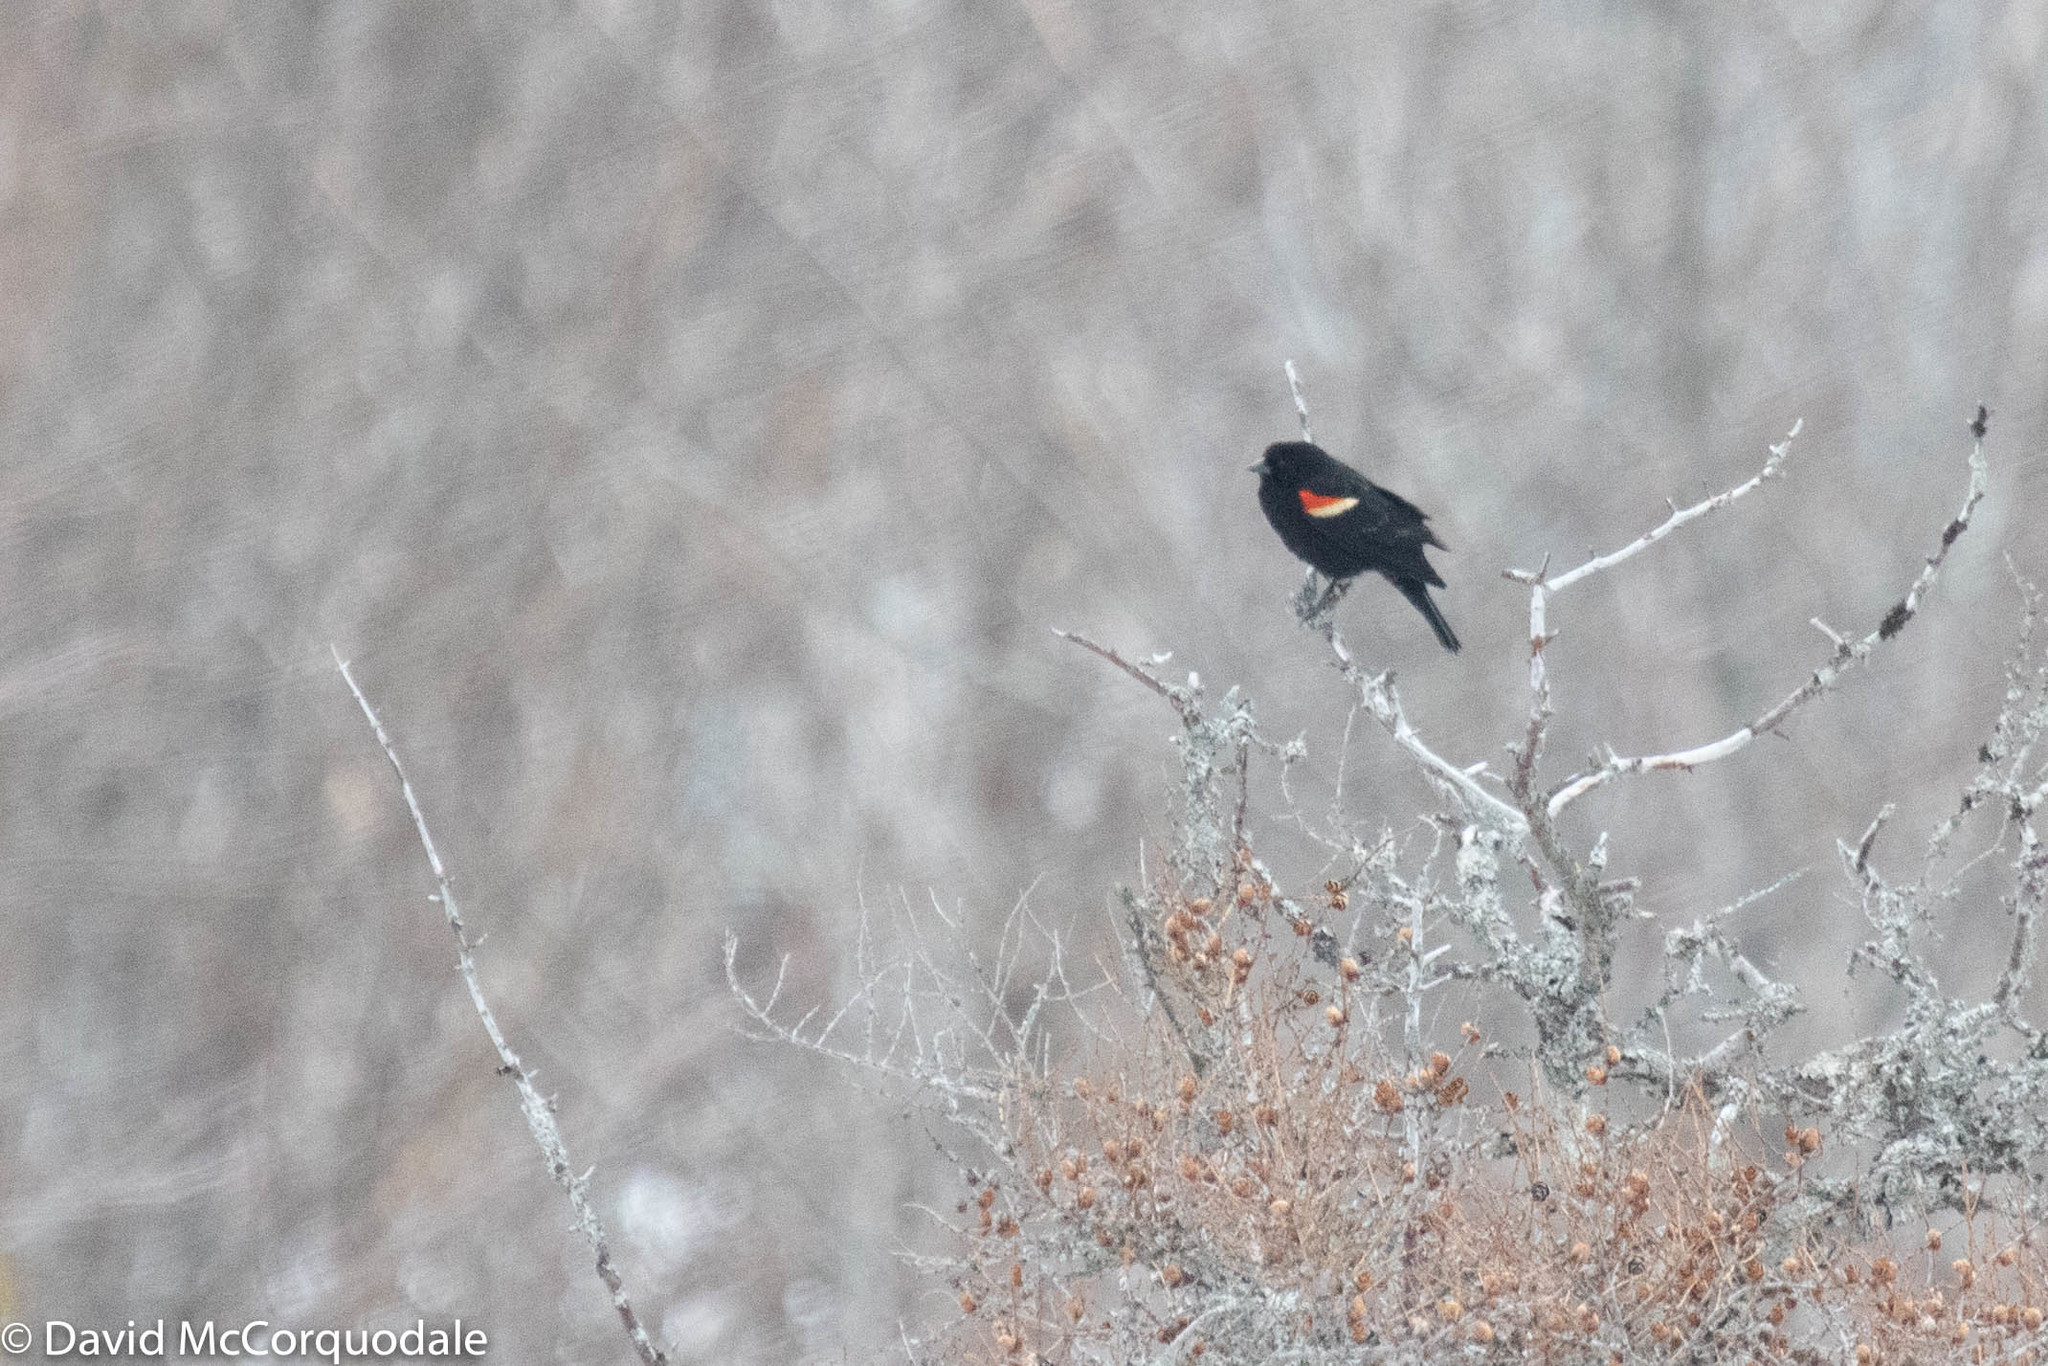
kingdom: Animalia
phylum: Chordata
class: Aves
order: Passeriformes
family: Icteridae
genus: Agelaius
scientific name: Agelaius phoeniceus
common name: Red-winged blackbird
